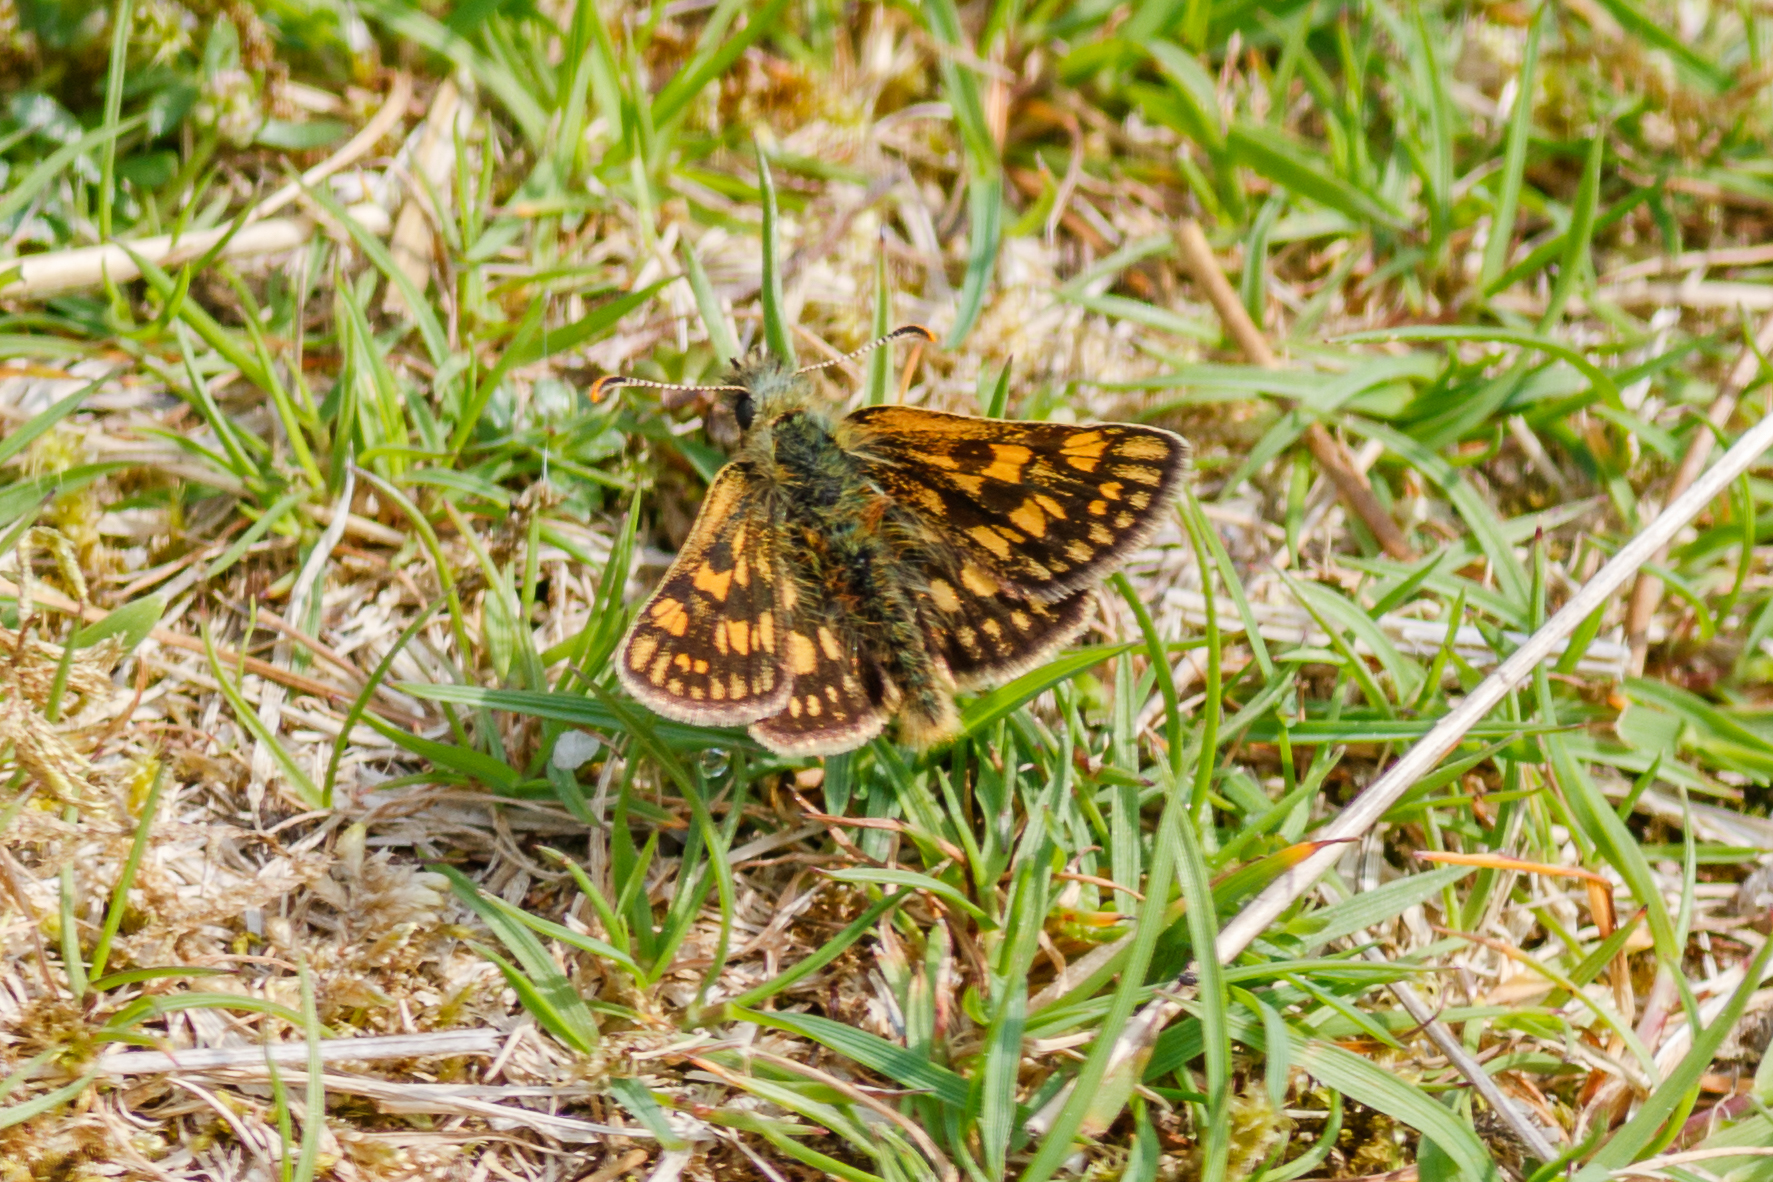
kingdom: Animalia
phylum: Arthropoda
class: Insecta
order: Lepidoptera
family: Hesperiidae
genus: Carterocephalus
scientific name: Carterocephalus palaemon
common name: Chequered skipper
